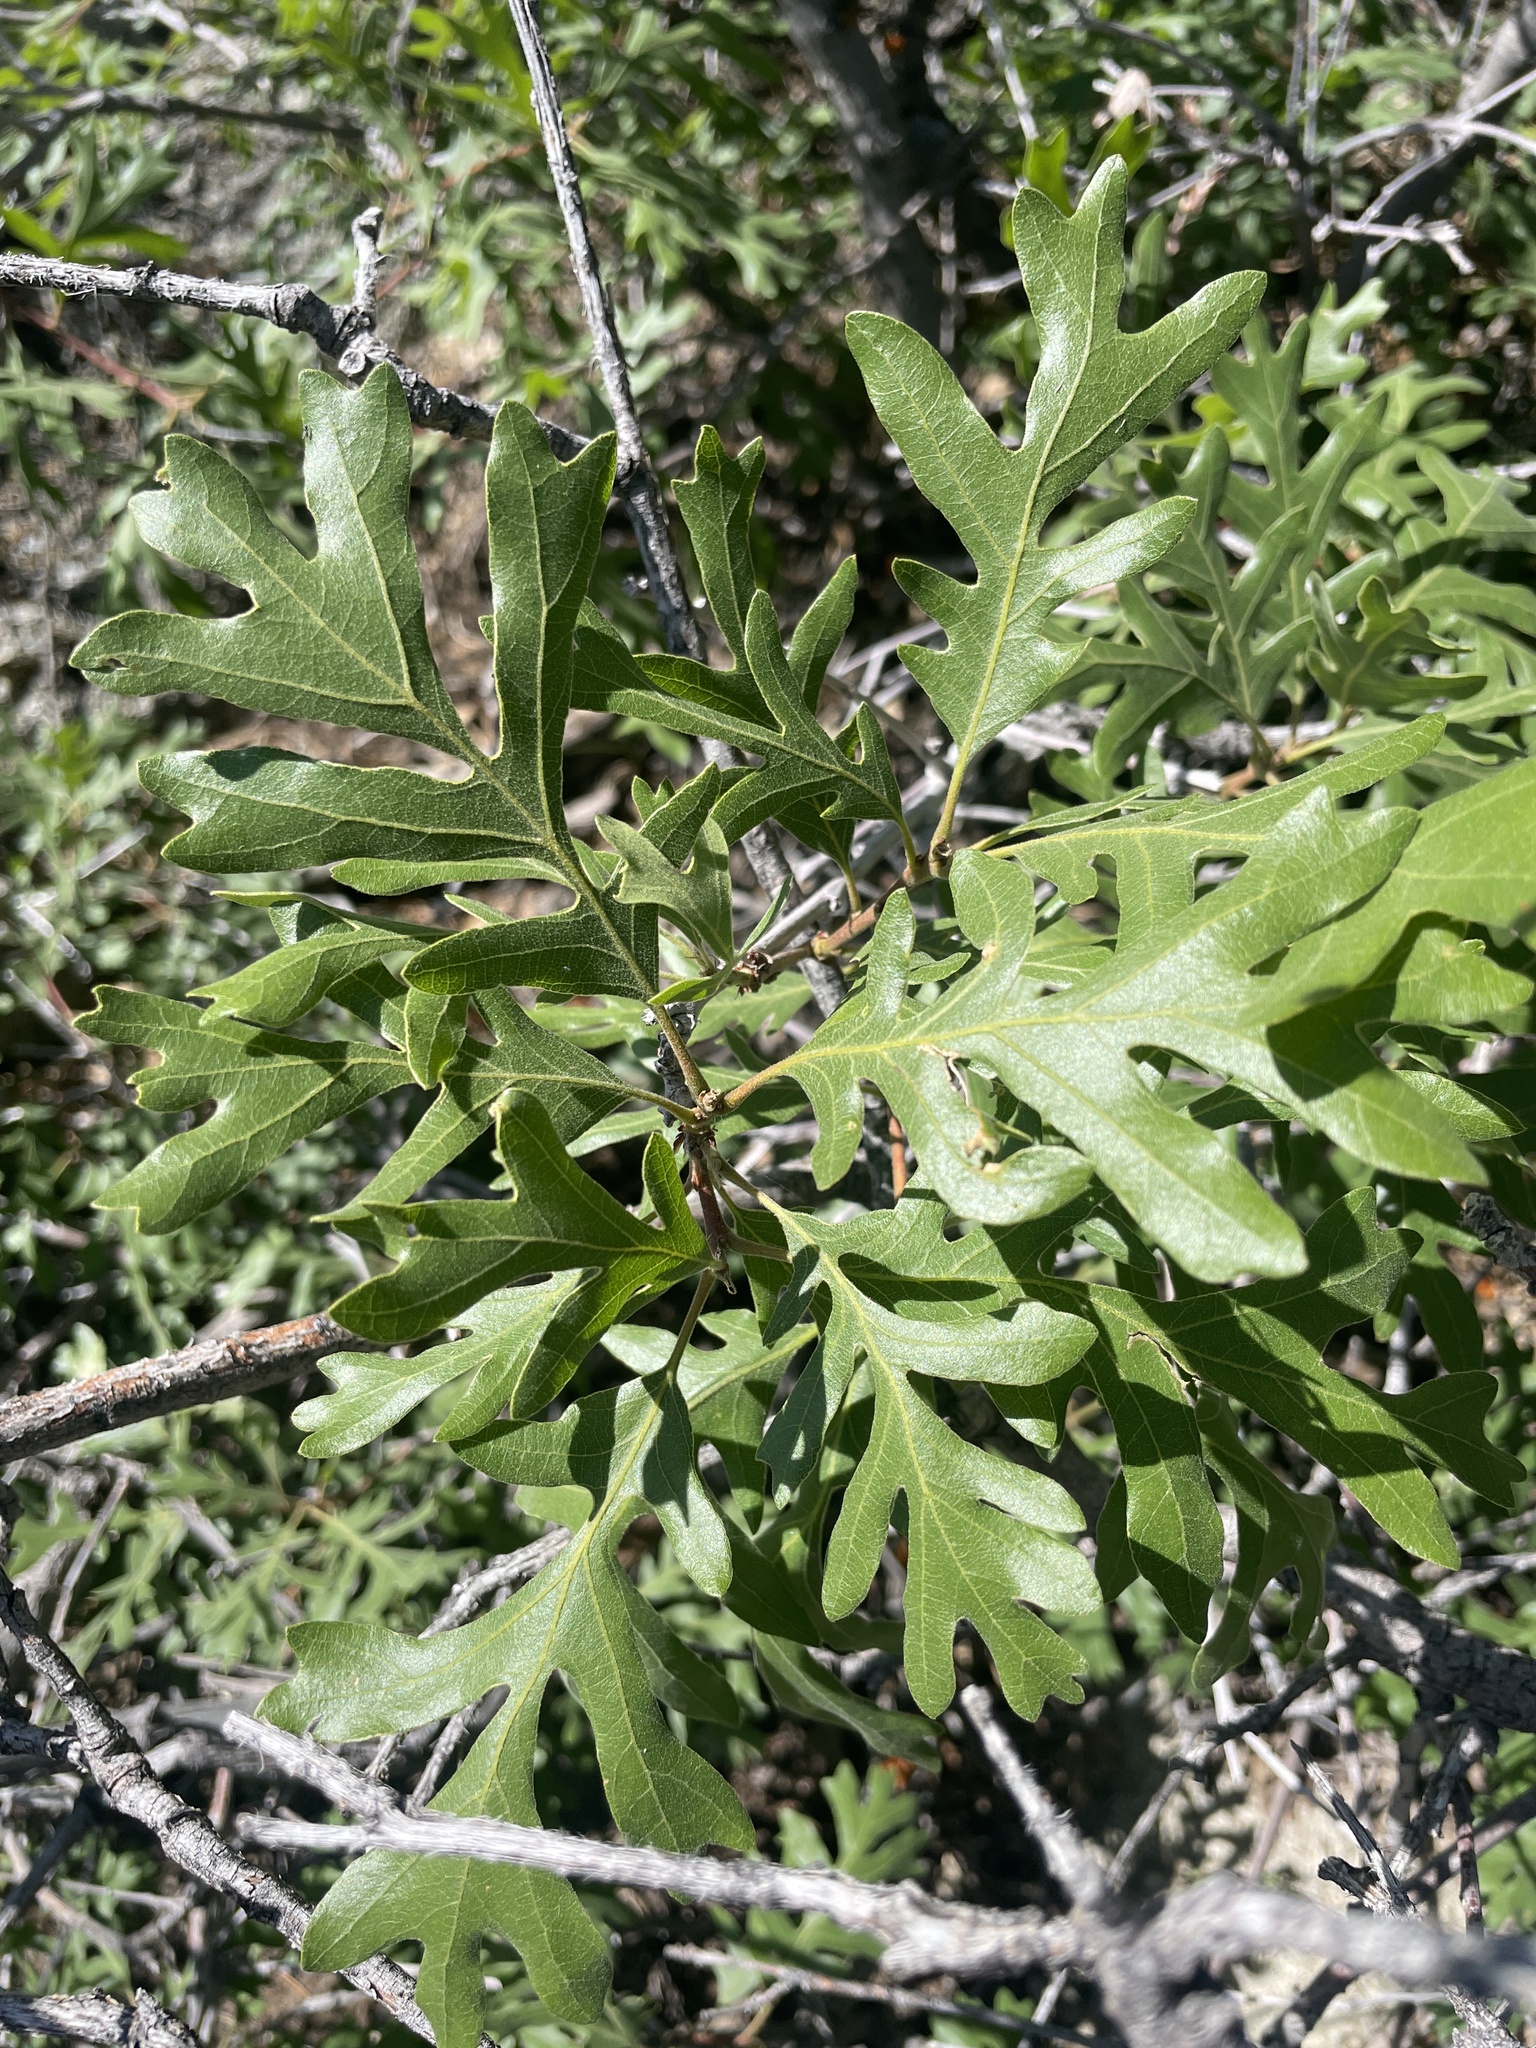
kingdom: Plantae
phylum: Tracheophyta
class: Magnoliopsida
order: Fagales
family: Fagaceae
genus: Quercus
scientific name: Quercus gambelii
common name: Gambel oak
